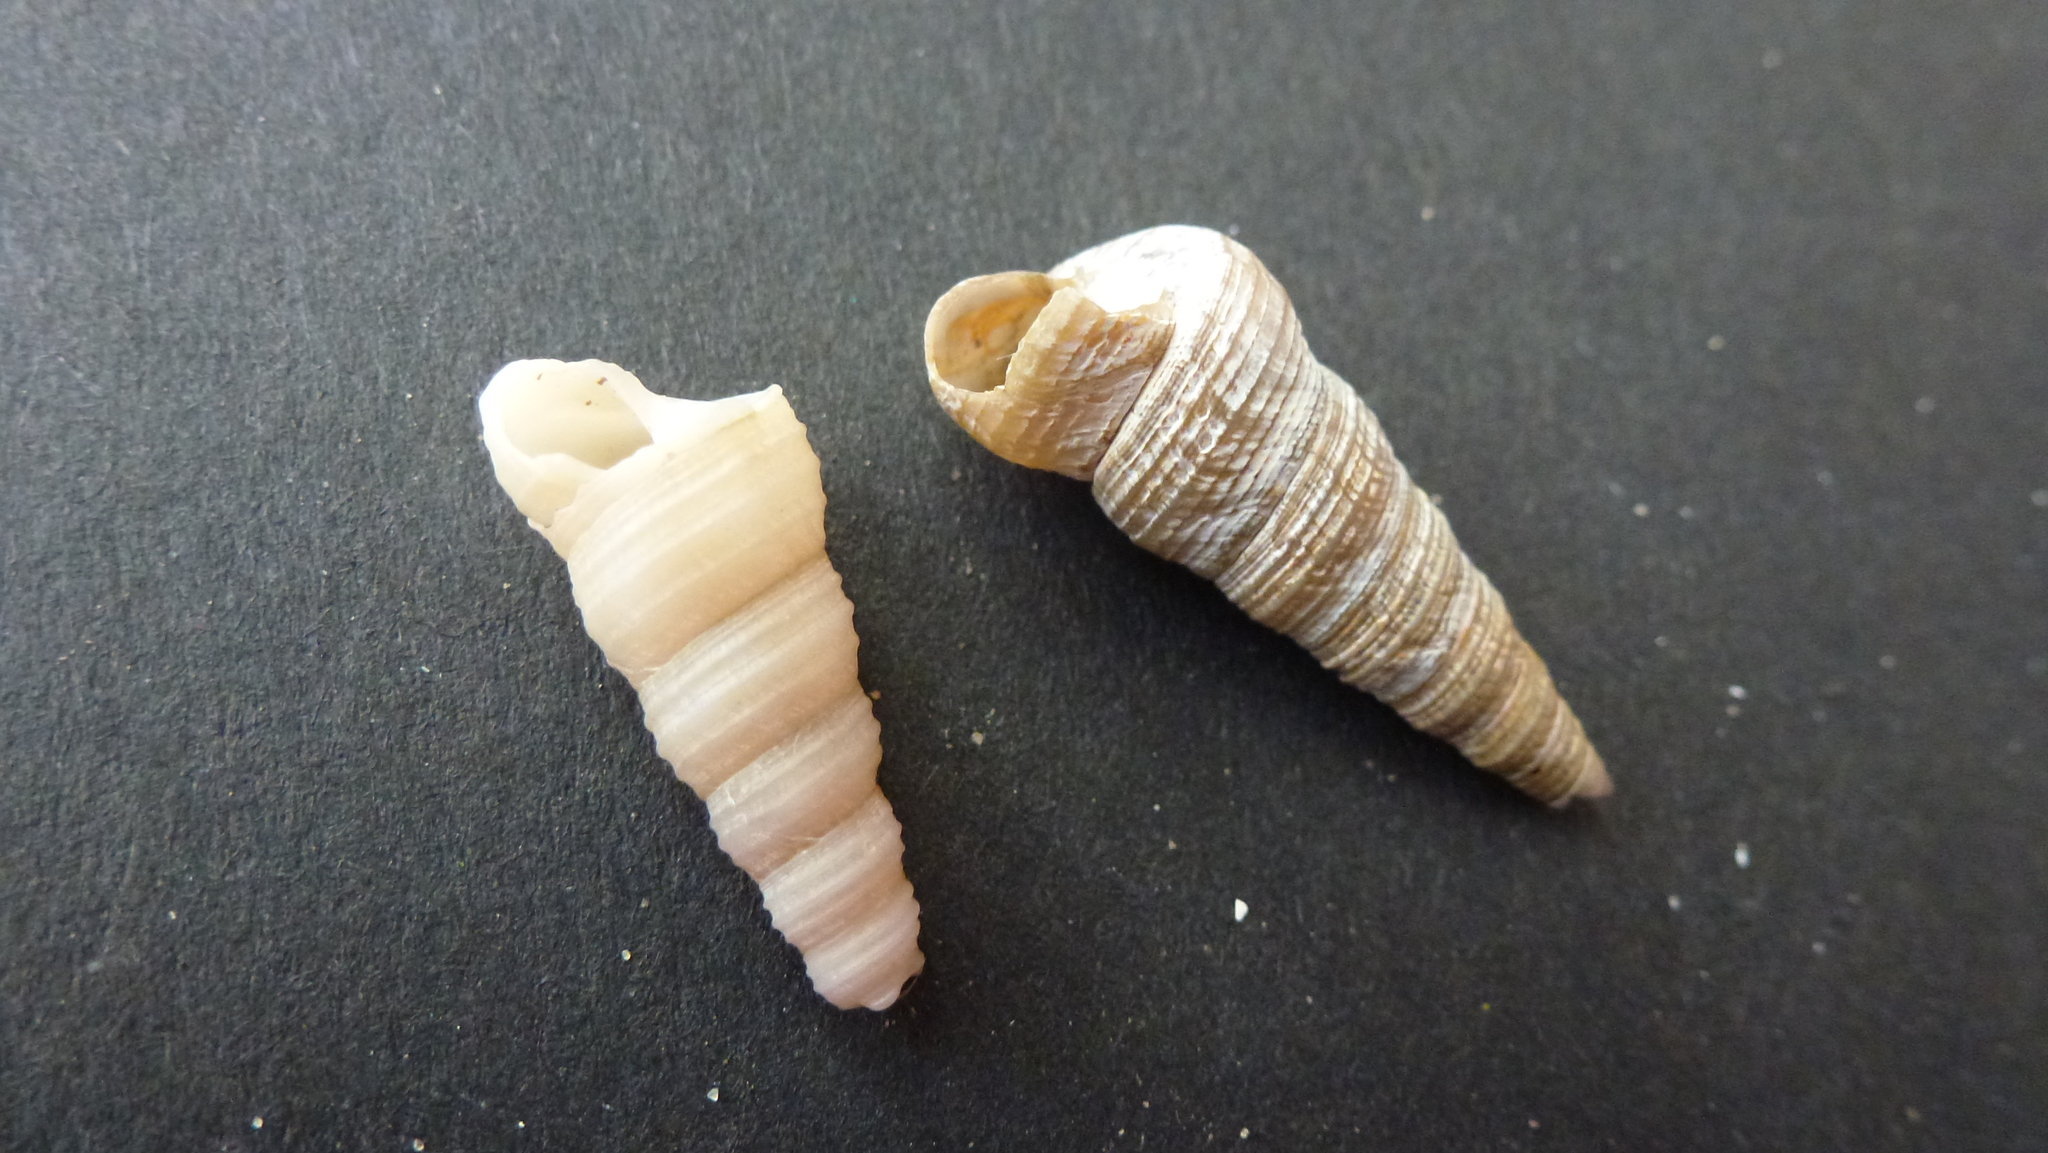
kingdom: Animalia
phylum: Mollusca
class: Gastropoda
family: Turritellidae
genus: Turritellinella
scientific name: Turritellinella tricarinata
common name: Auger shell
